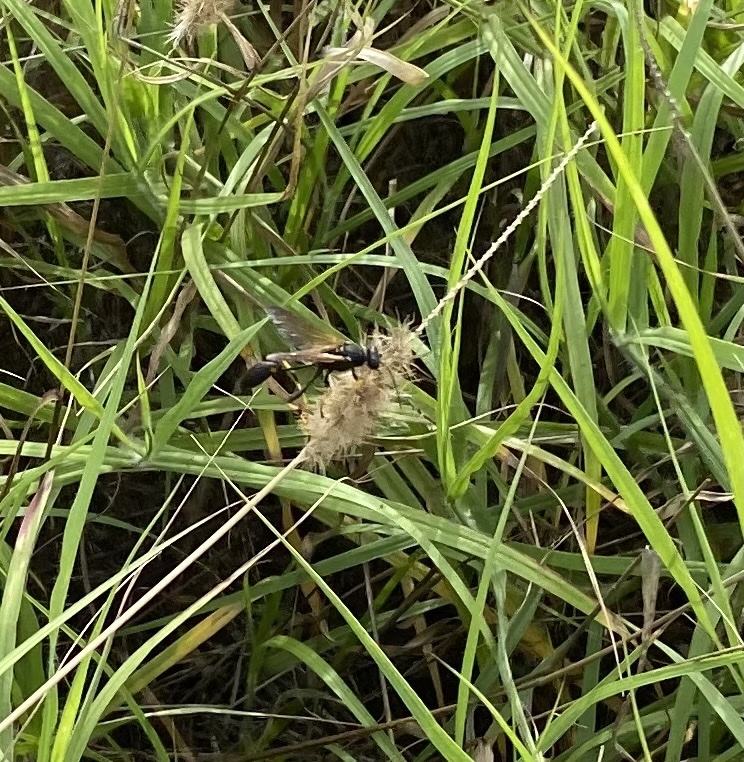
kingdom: Animalia
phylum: Arthropoda
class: Insecta
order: Hymenoptera
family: Sphecidae
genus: Sceliphron
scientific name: Sceliphron caementarium
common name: Mud dauber
